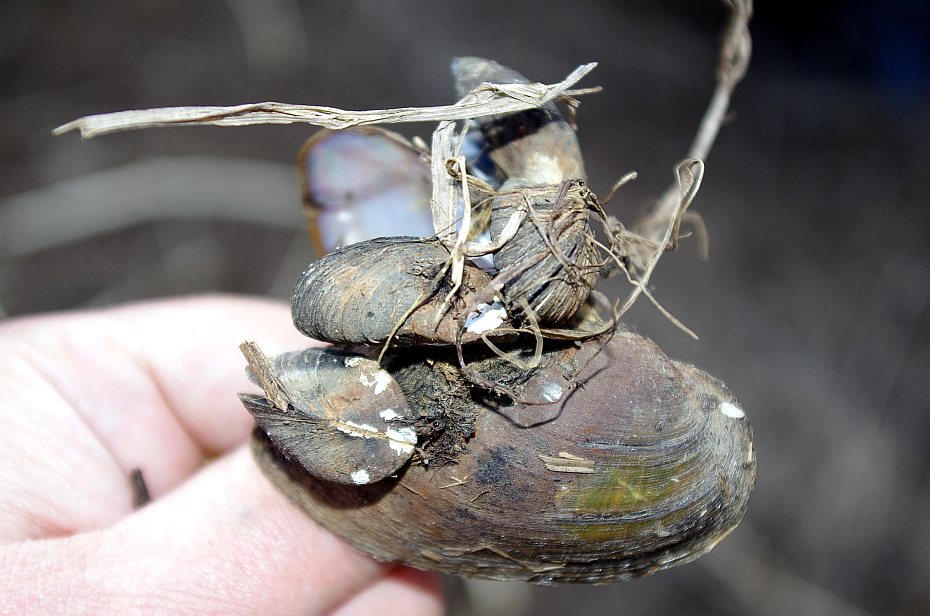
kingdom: Animalia
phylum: Mollusca
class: Bivalvia
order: Myida
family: Dreissenidae
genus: Dreissena
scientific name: Dreissena polymorpha
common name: Zebra mussel
